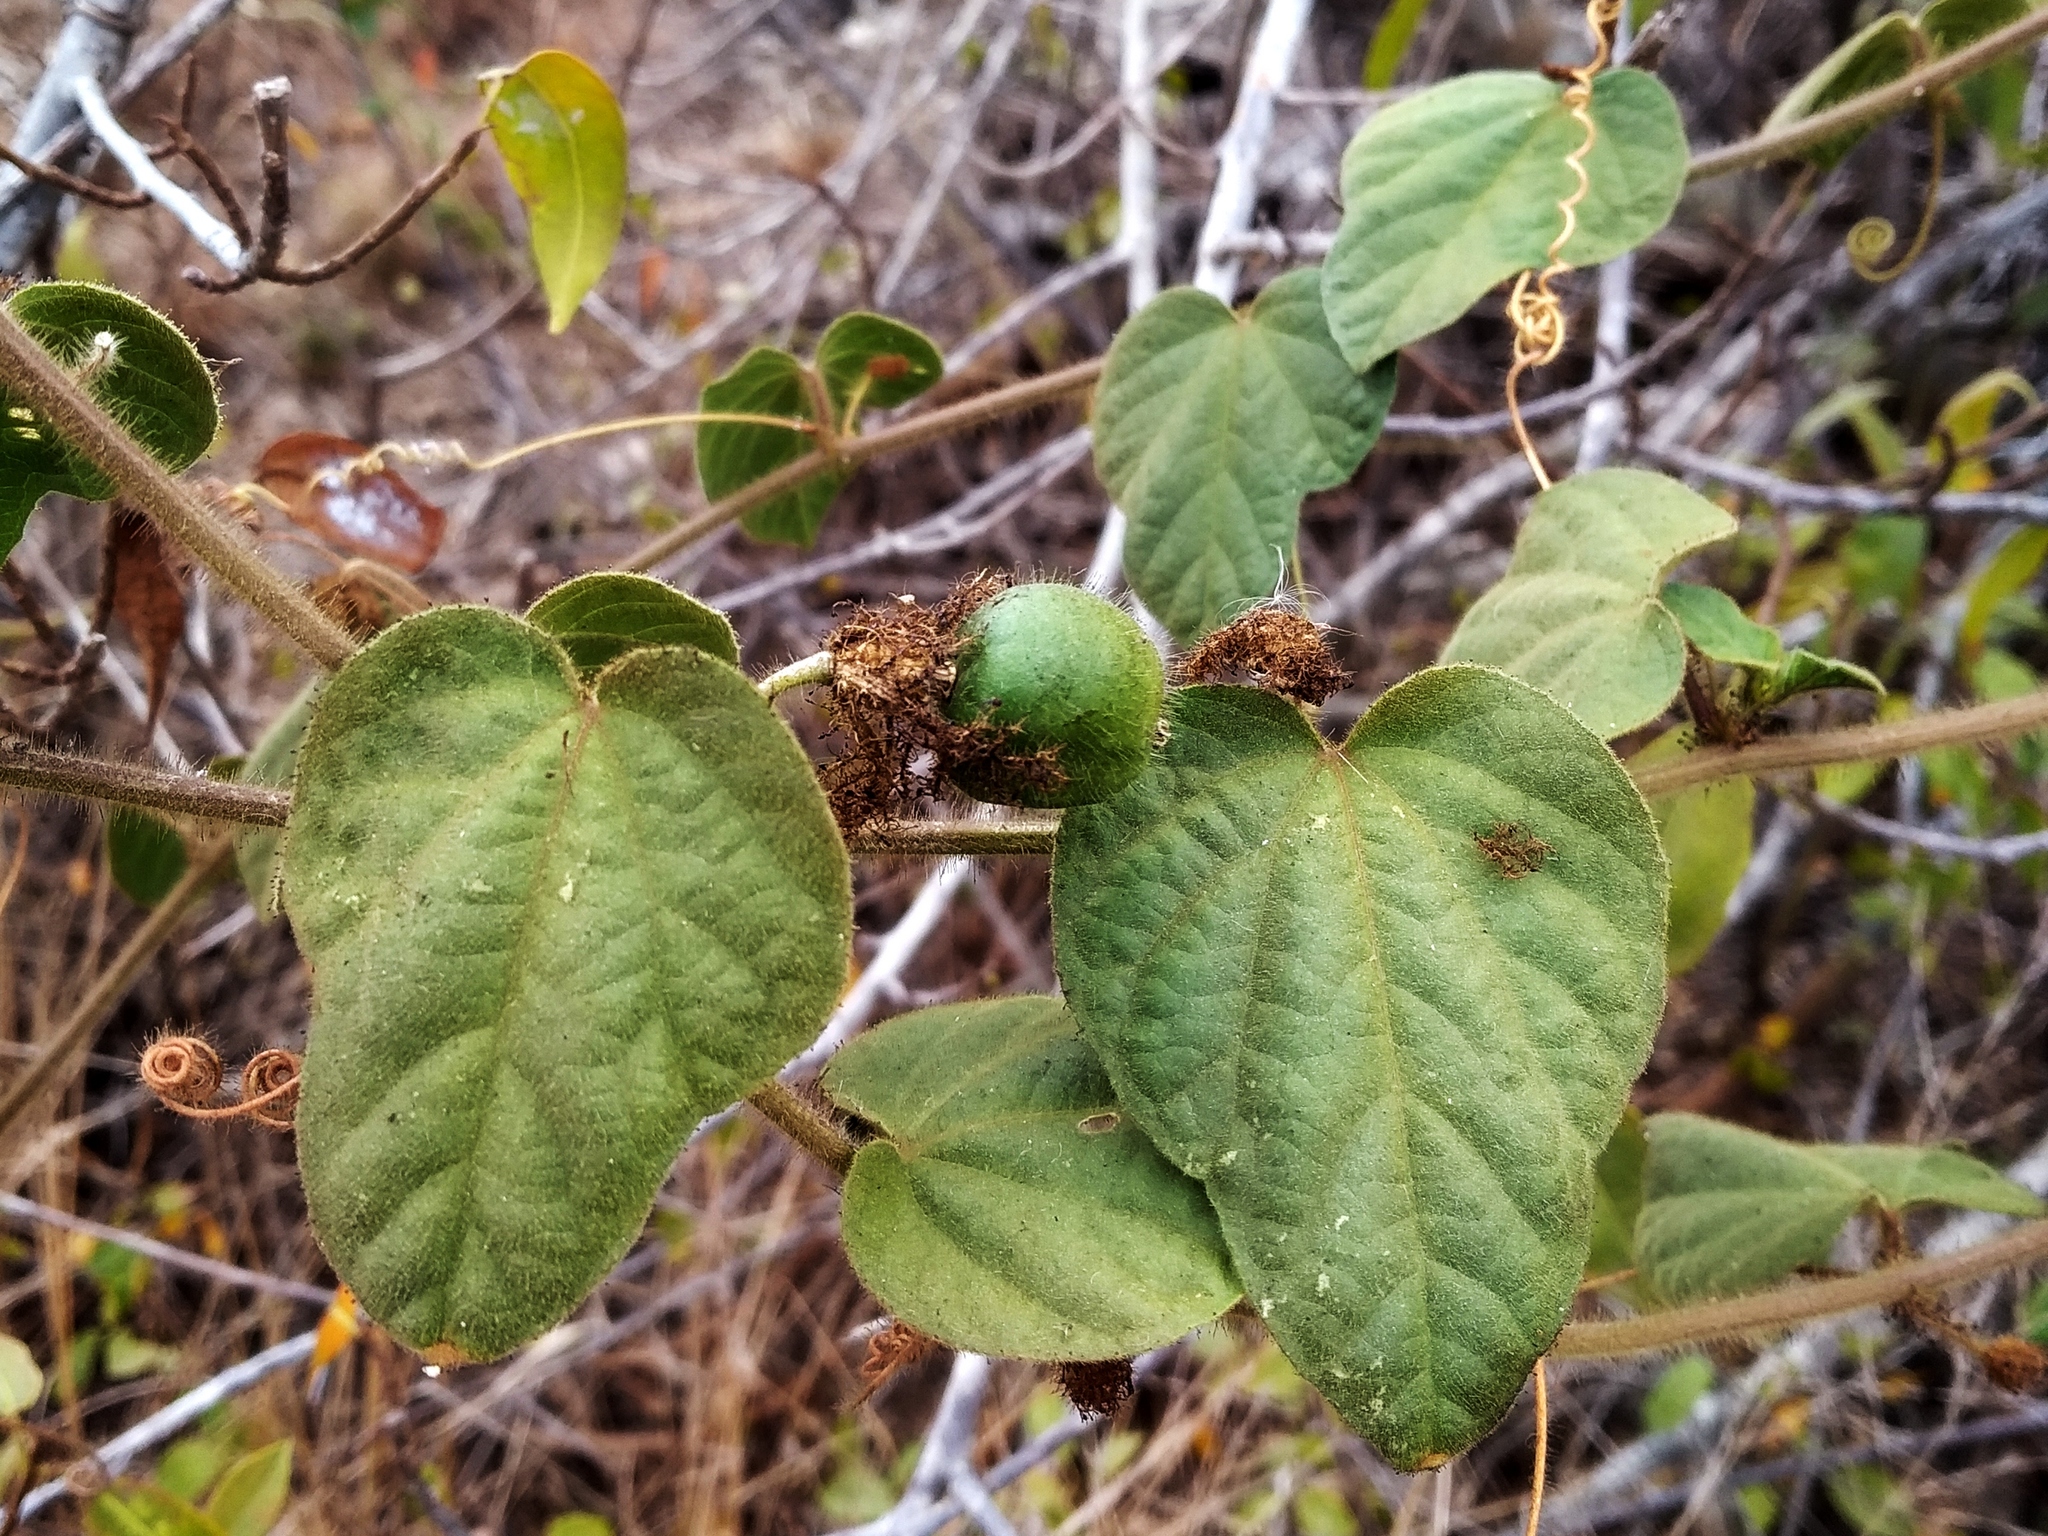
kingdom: Plantae
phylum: Tracheophyta
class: Magnoliopsida
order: Malpighiales
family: Passifloraceae
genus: Passiflora
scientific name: Passiflora foetida
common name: Fetid passionflower
